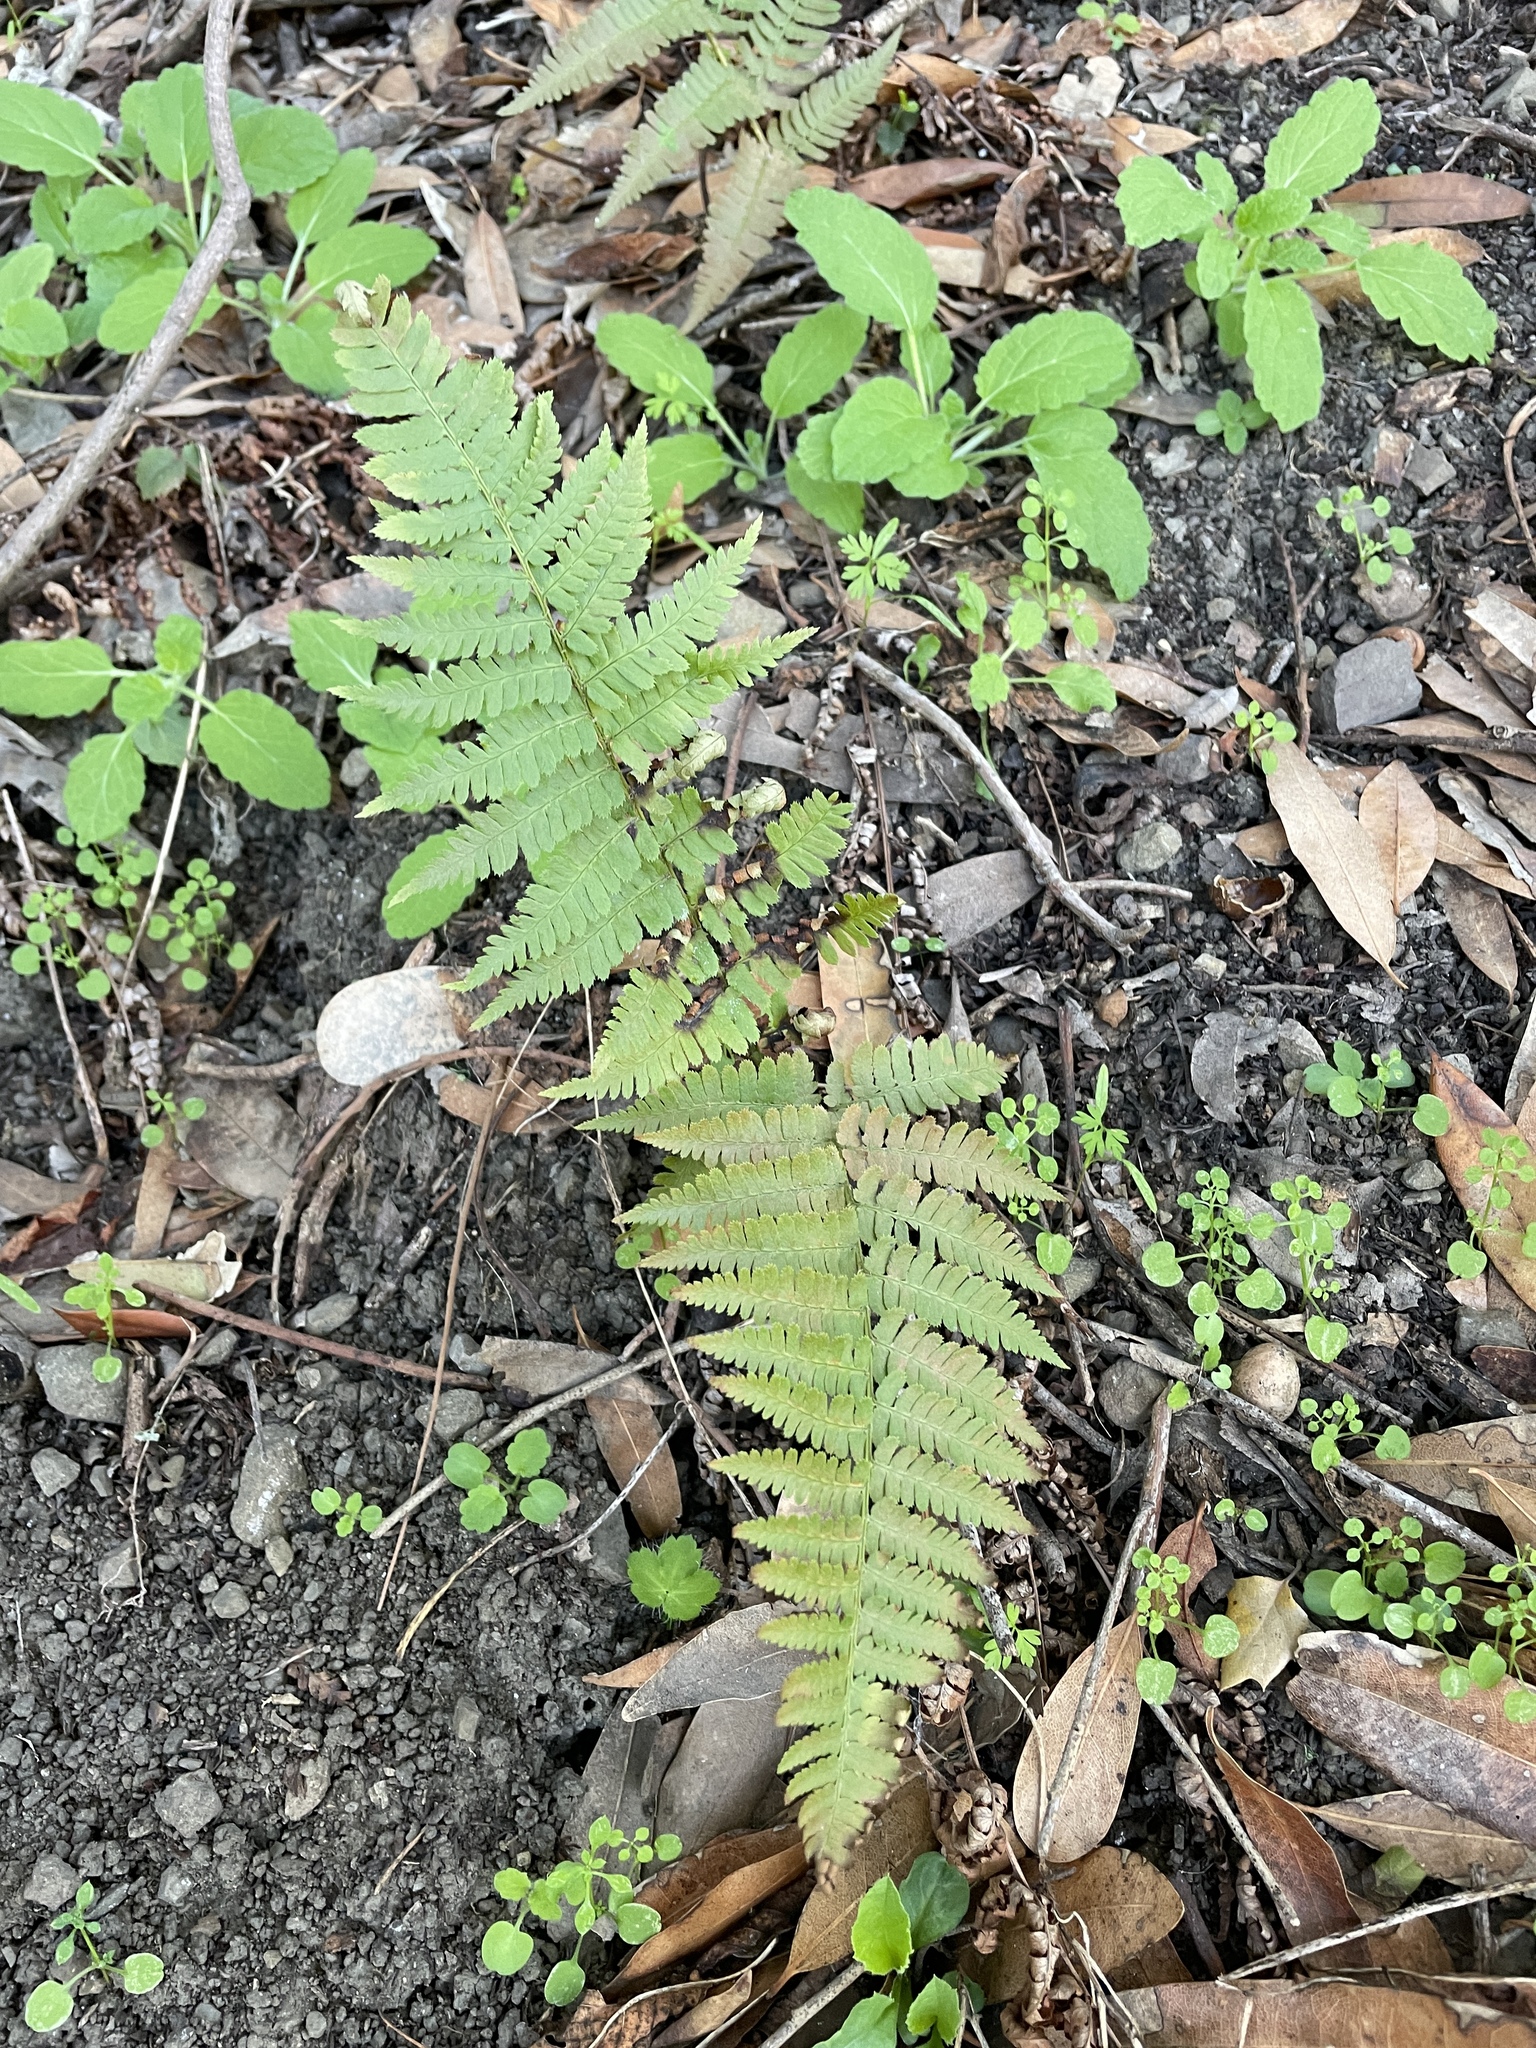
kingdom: Plantae
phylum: Tracheophyta
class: Polypodiopsida
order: Polypodiales
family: Dryopteridaceae
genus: Dryopteris
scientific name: Dryopteris arguta
